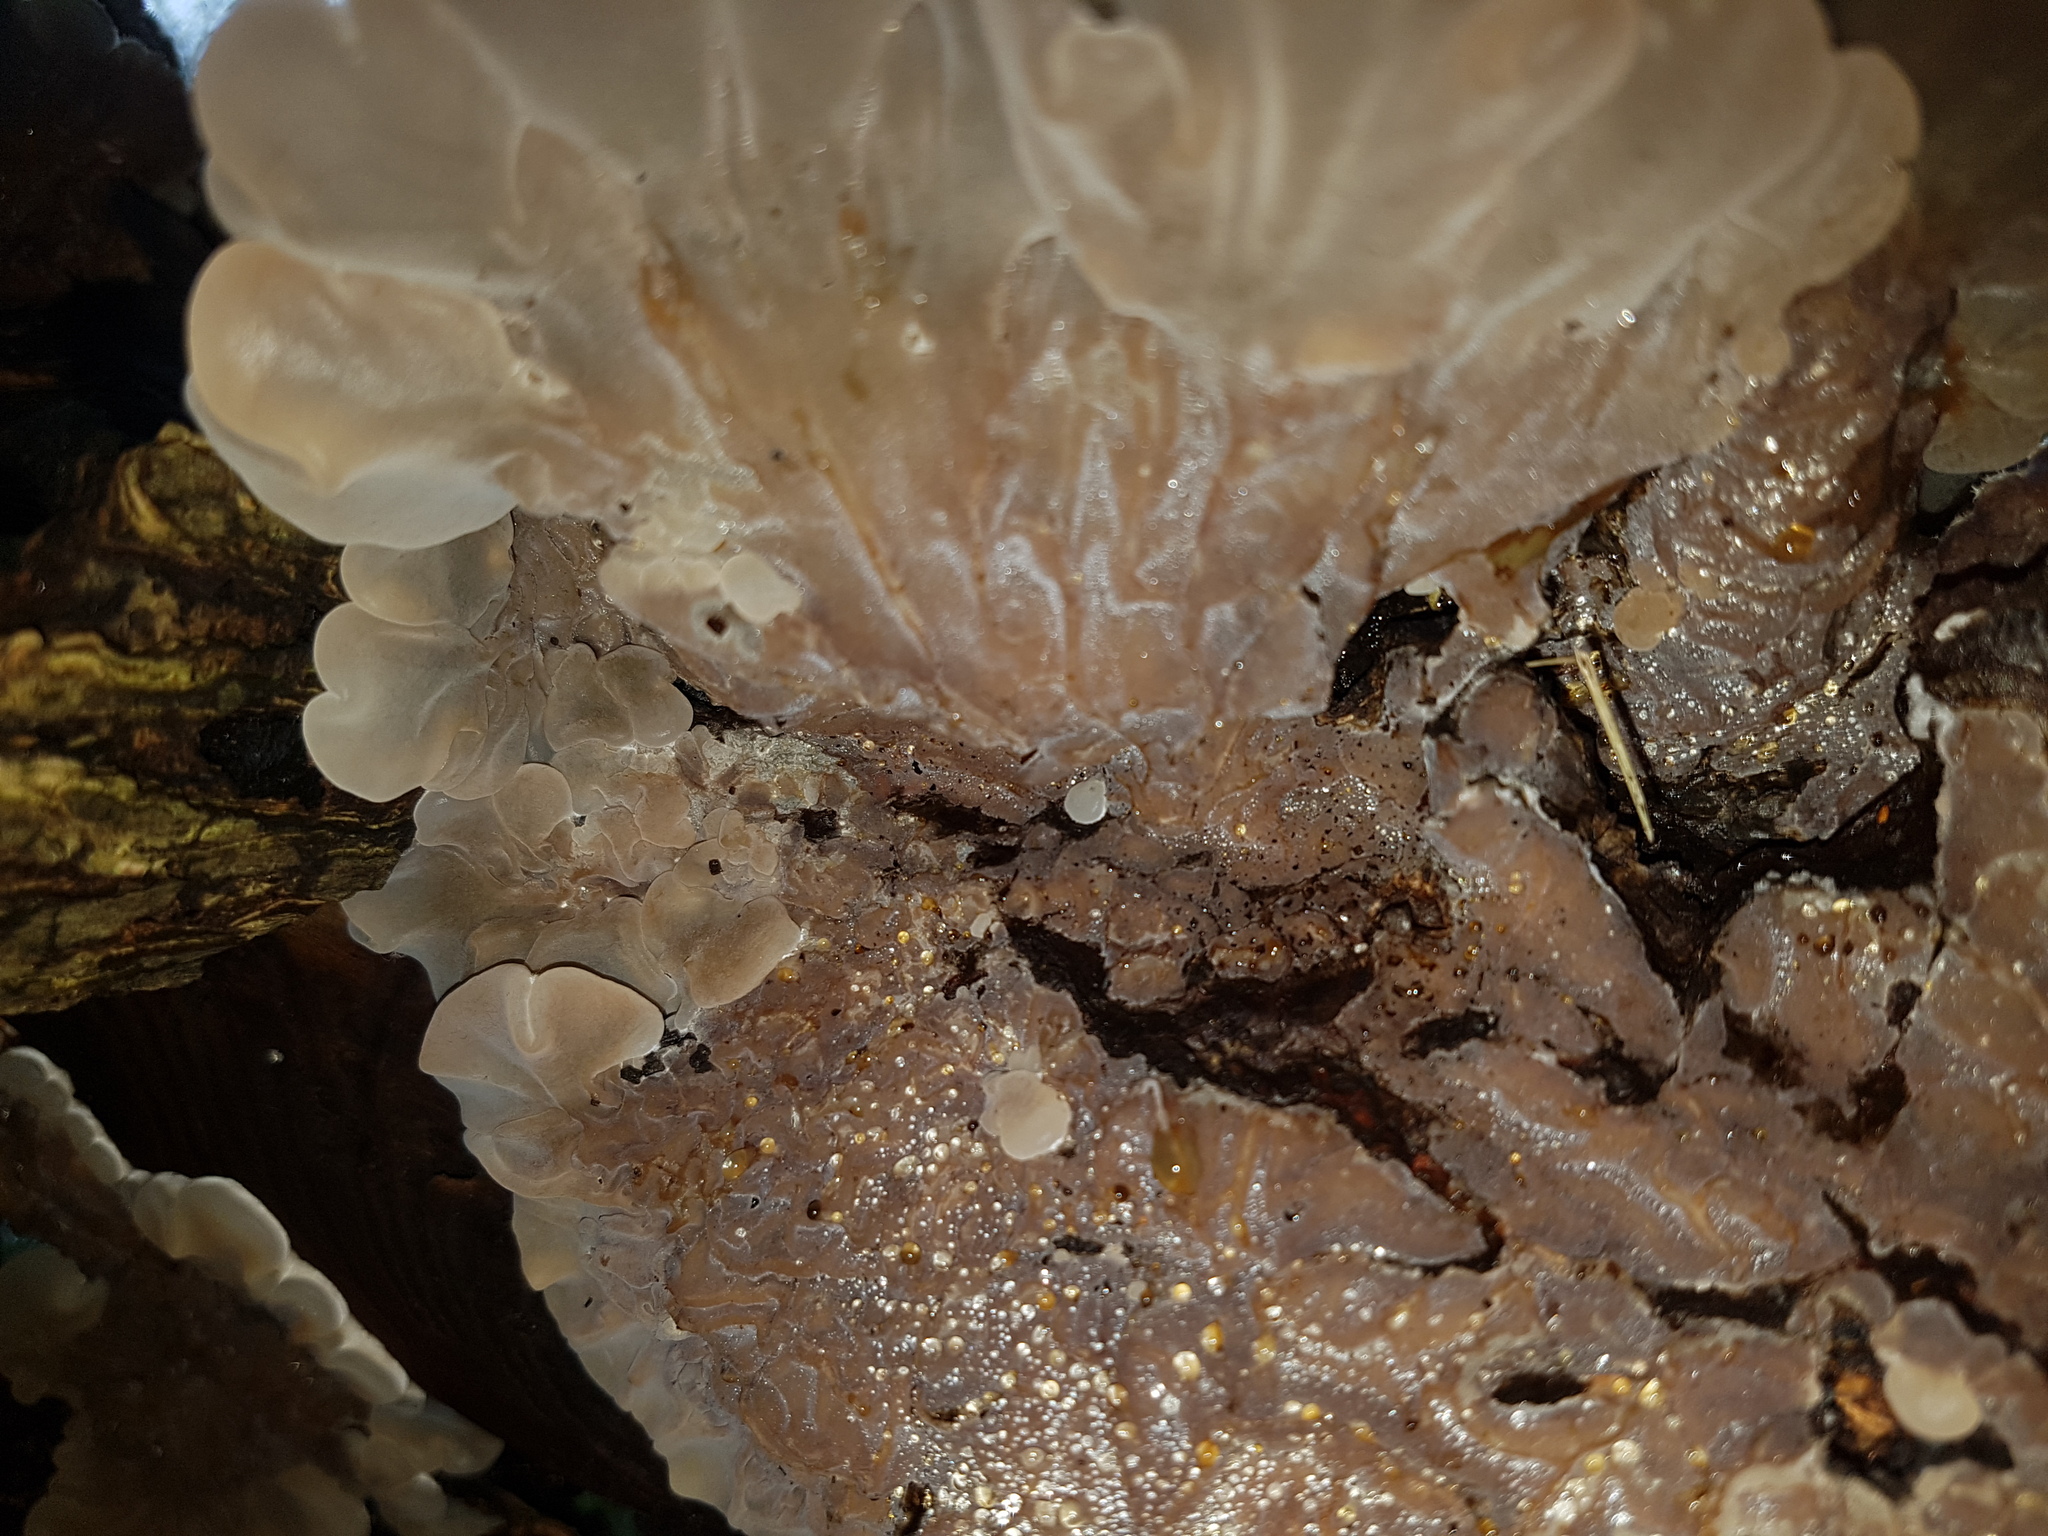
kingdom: Fungi
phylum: Basidiomycota
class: Agaricomycetes
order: Auriculariales
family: Auriculariaceae
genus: Auricularia
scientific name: Auricularia mesenterica
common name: Tripe fungus
